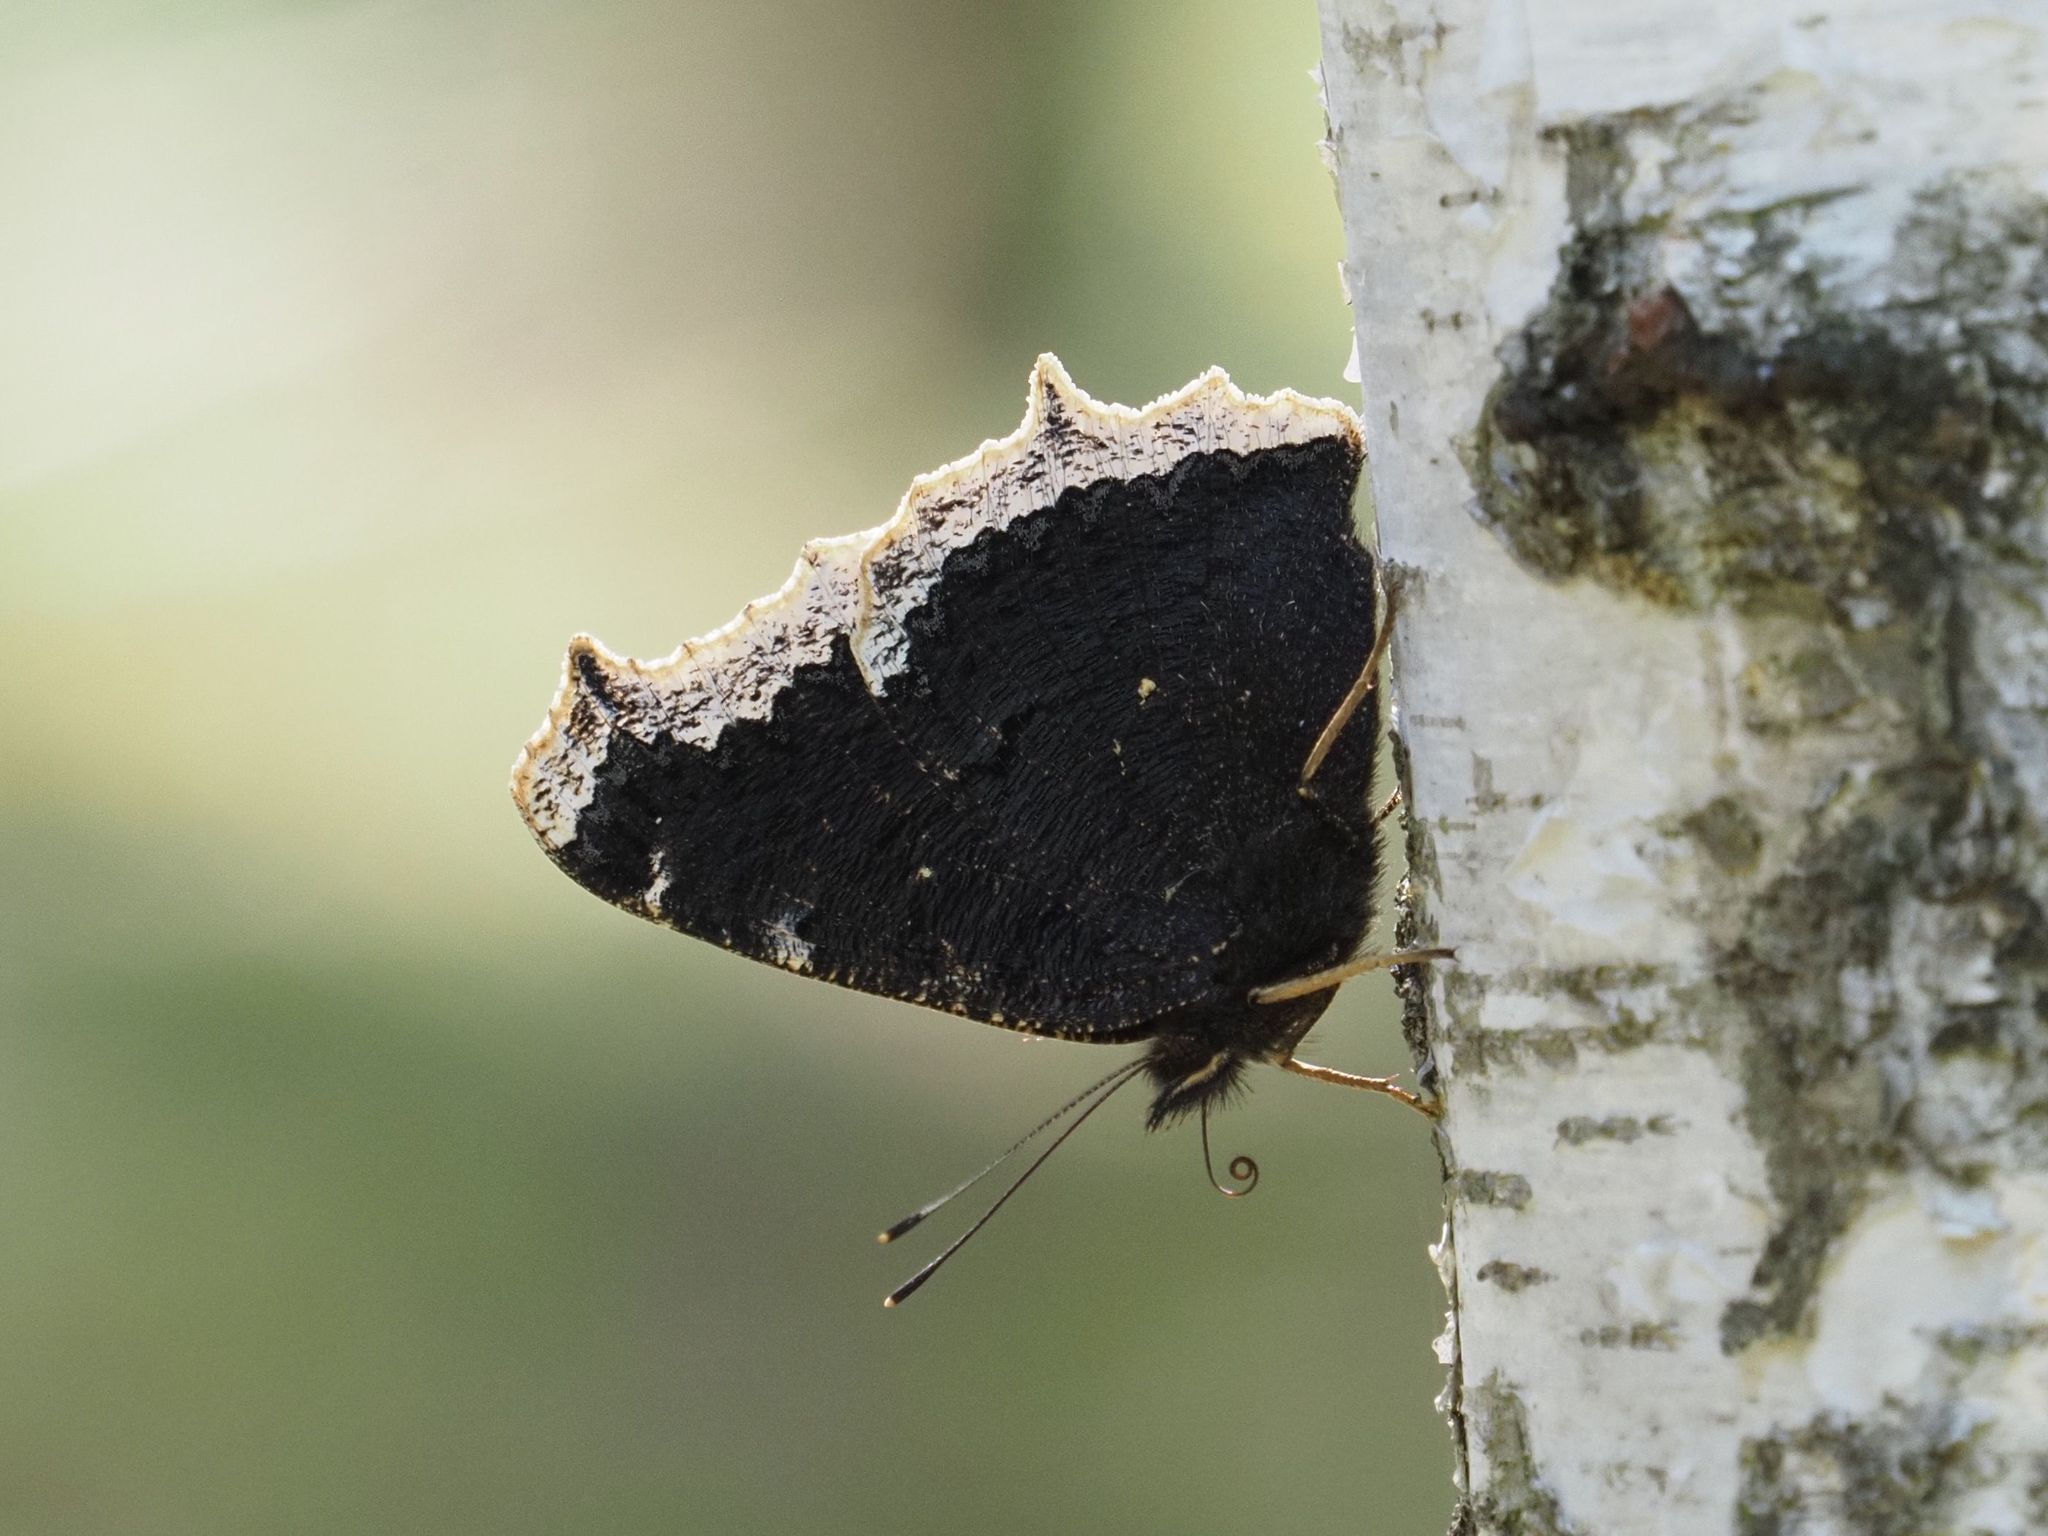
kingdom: Animalia
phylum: Arthropoda
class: Insecta
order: Lepidoptera
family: Nymphalidae
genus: Nymphalis
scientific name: Nymphalis antiopa
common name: Camberwell beauty
